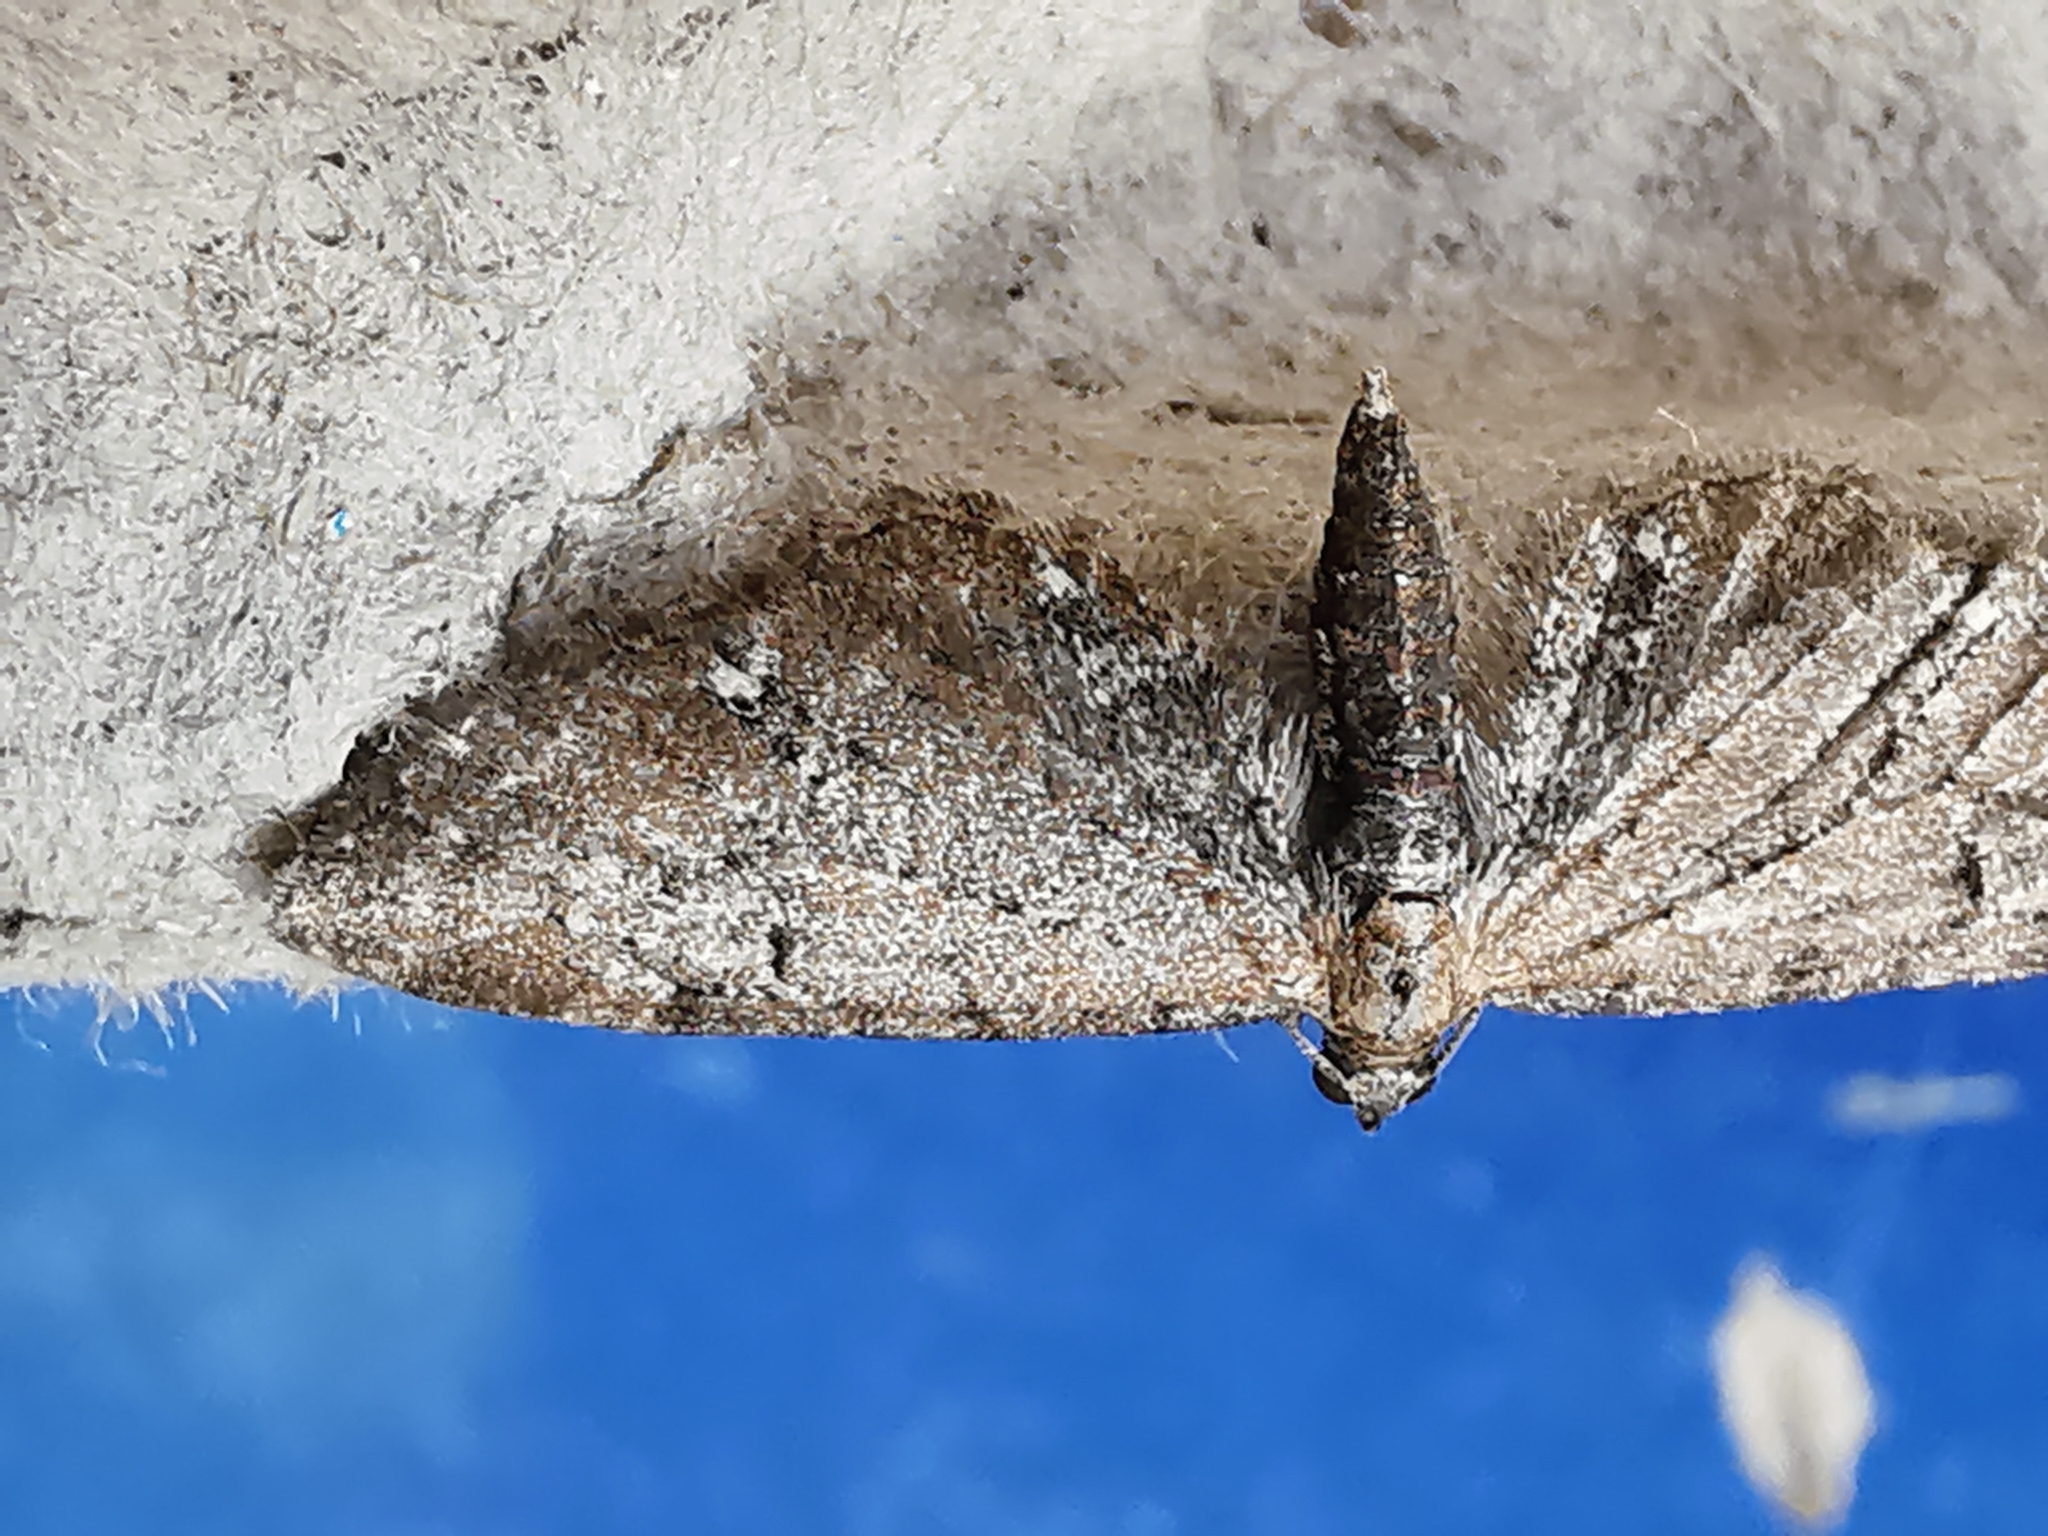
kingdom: Animalia
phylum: Arthropoda
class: Insecta
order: Lepidoptera
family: Geometridae
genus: Eupithecia
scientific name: Eupithecia vulgata
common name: Common pug
